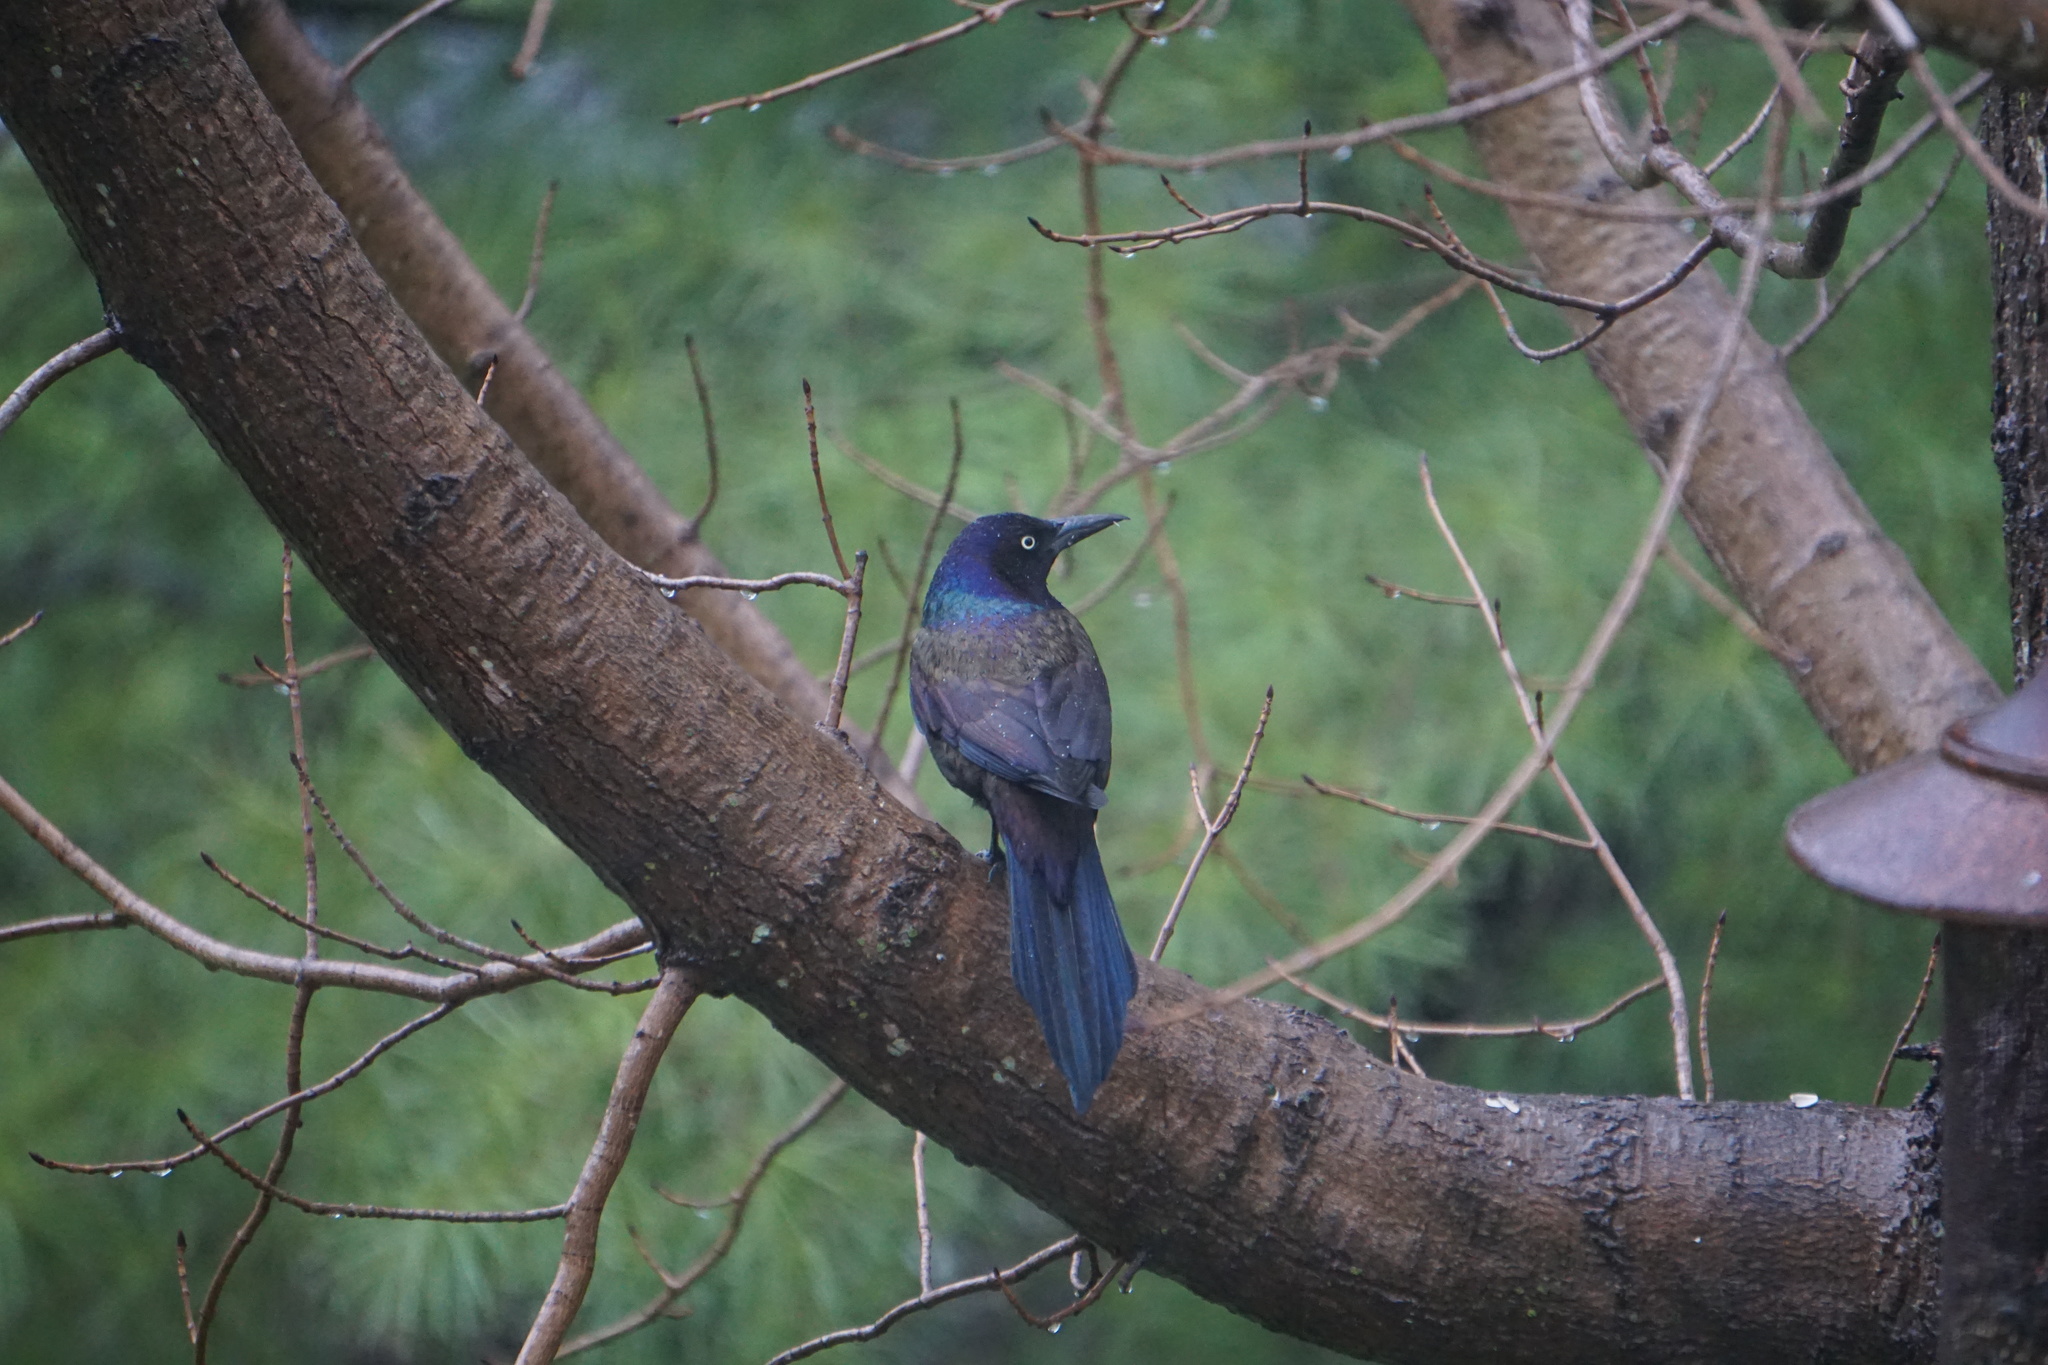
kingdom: Animalia
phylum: Chordata
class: Aves
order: Passeriformes
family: Icteridae
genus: Quiscalus
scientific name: Quiscalus quiscula
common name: Common grackle
